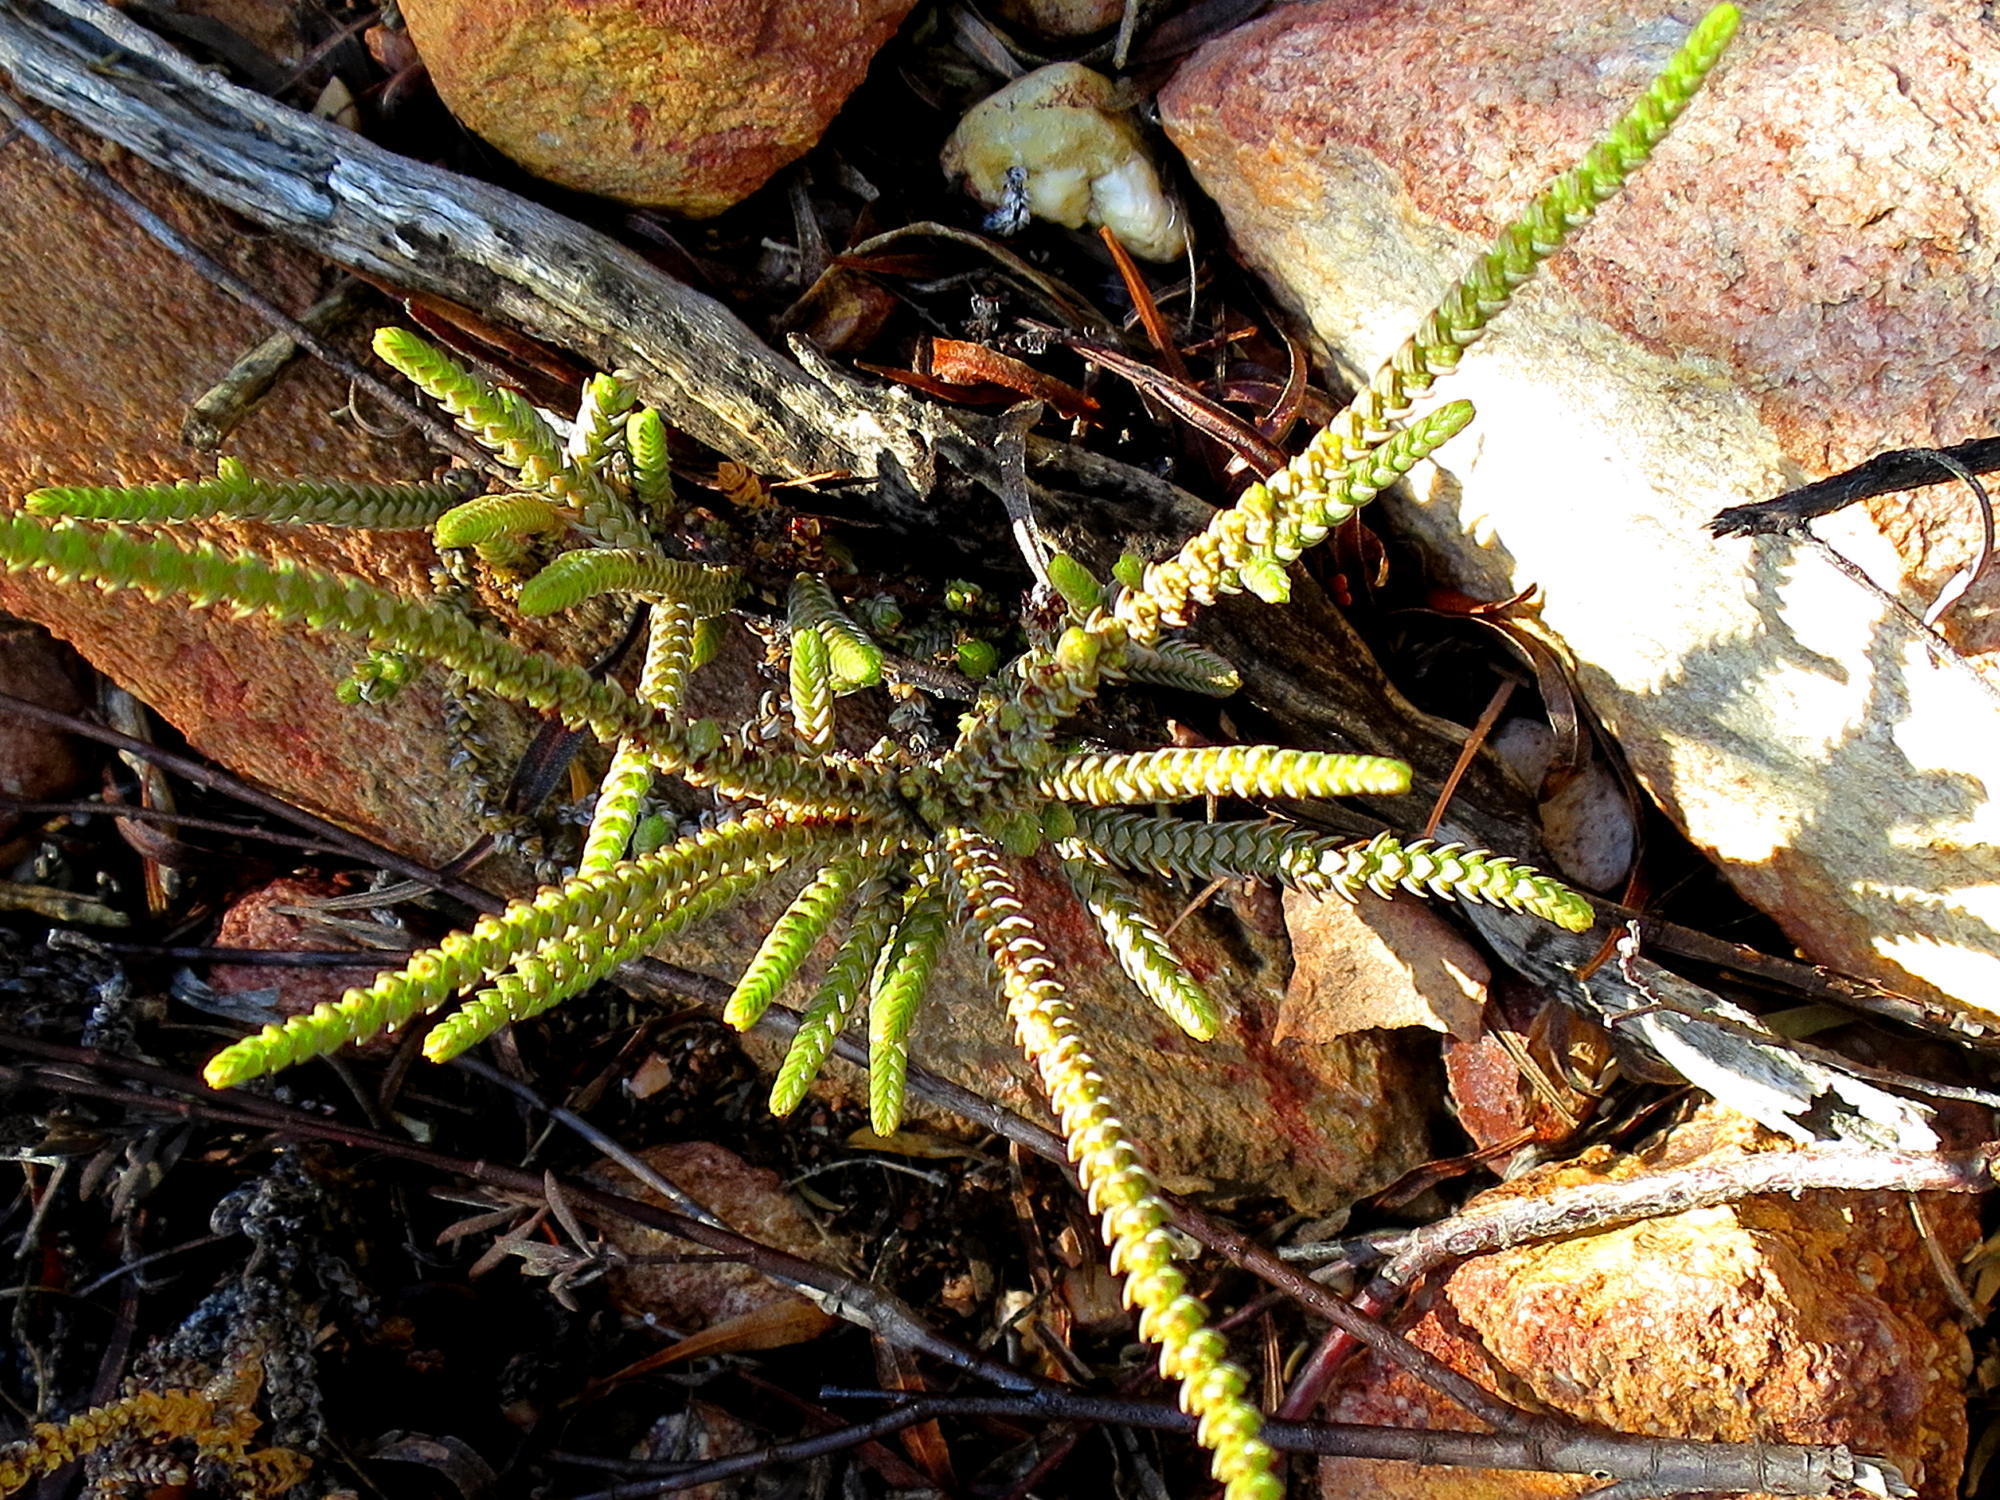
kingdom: Plantae
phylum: Tracheophyta
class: Magnoliopsida
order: Saxifragales
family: Crassulaceae
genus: Crassula
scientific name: Crassula muscosa
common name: Toy-cypress
